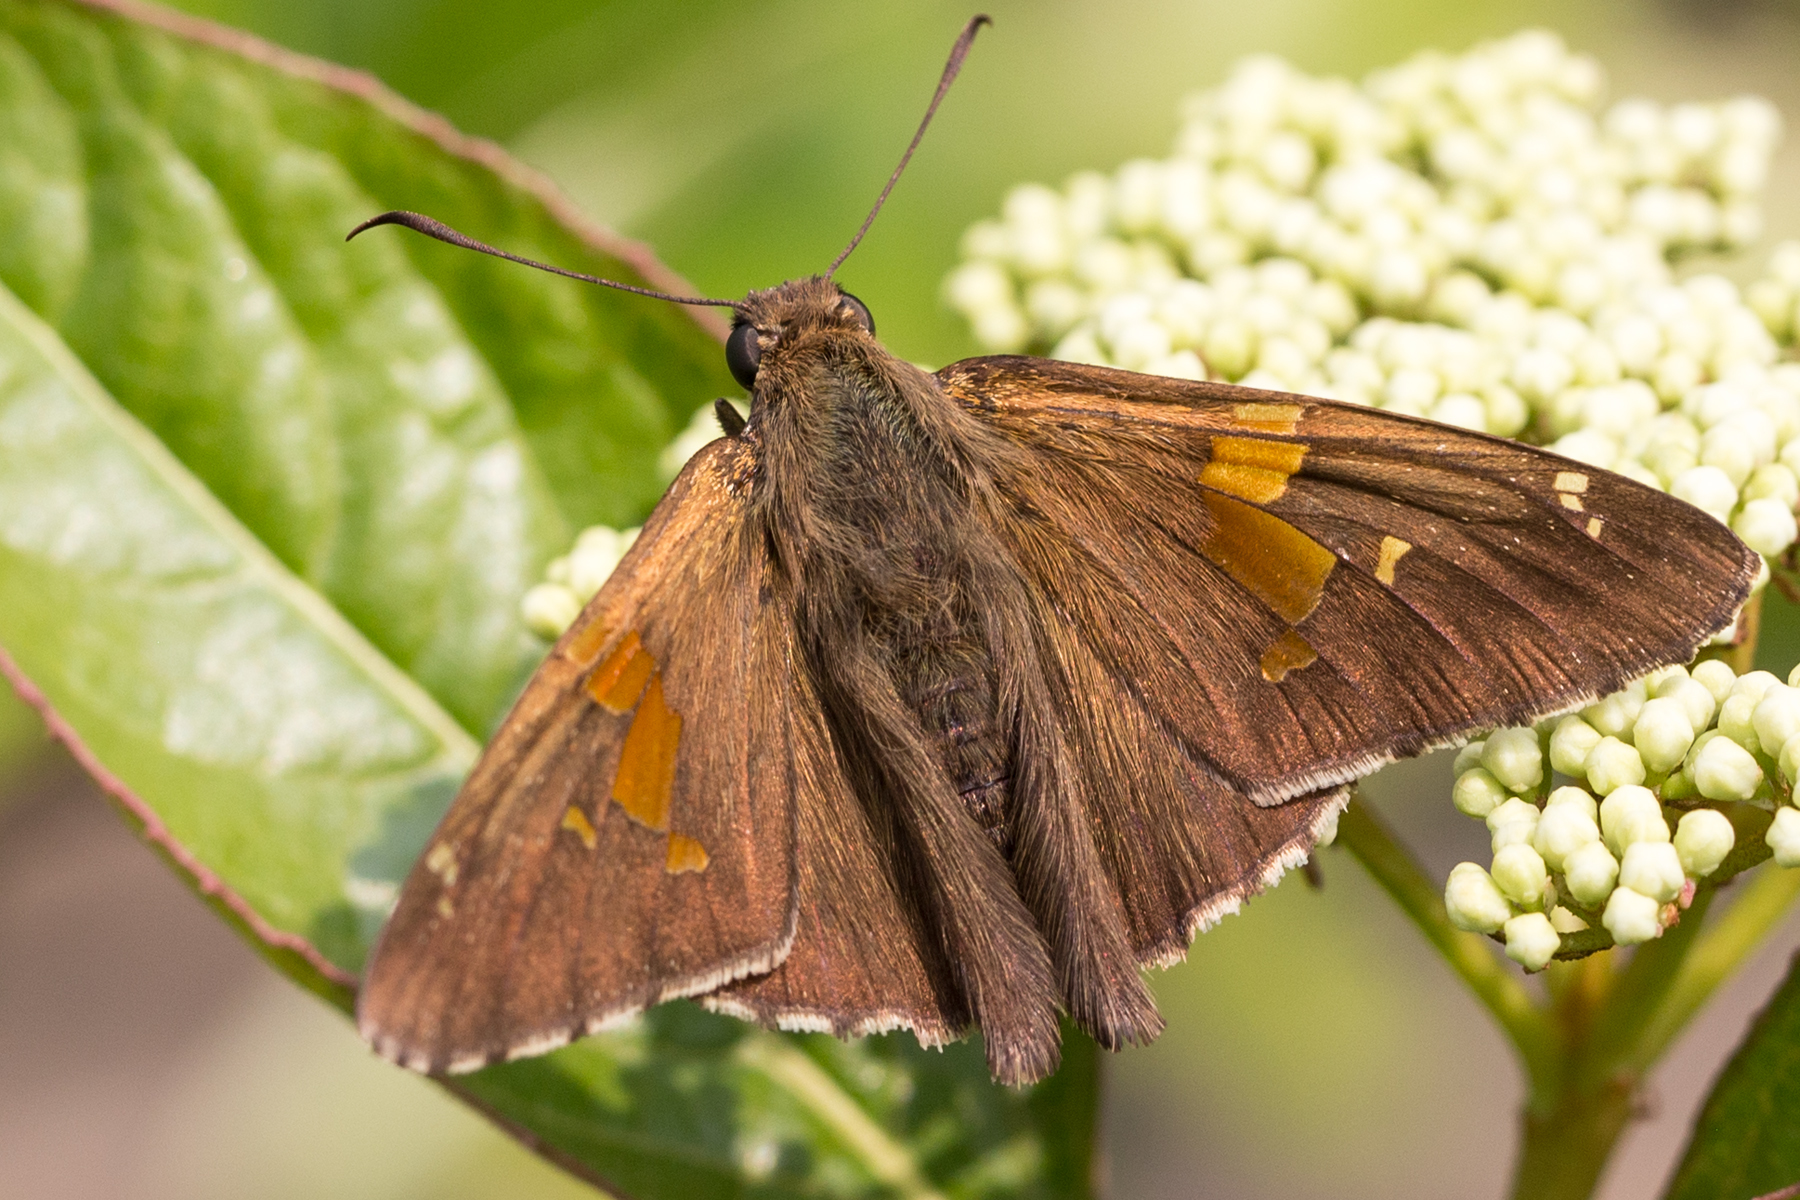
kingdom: Animalia
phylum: Arthropoda
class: Insecta
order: Lepidoptera
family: Hesperiidae
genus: Epargyreus
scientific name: Epargyreus clarus
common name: Silver-spotted skipper
